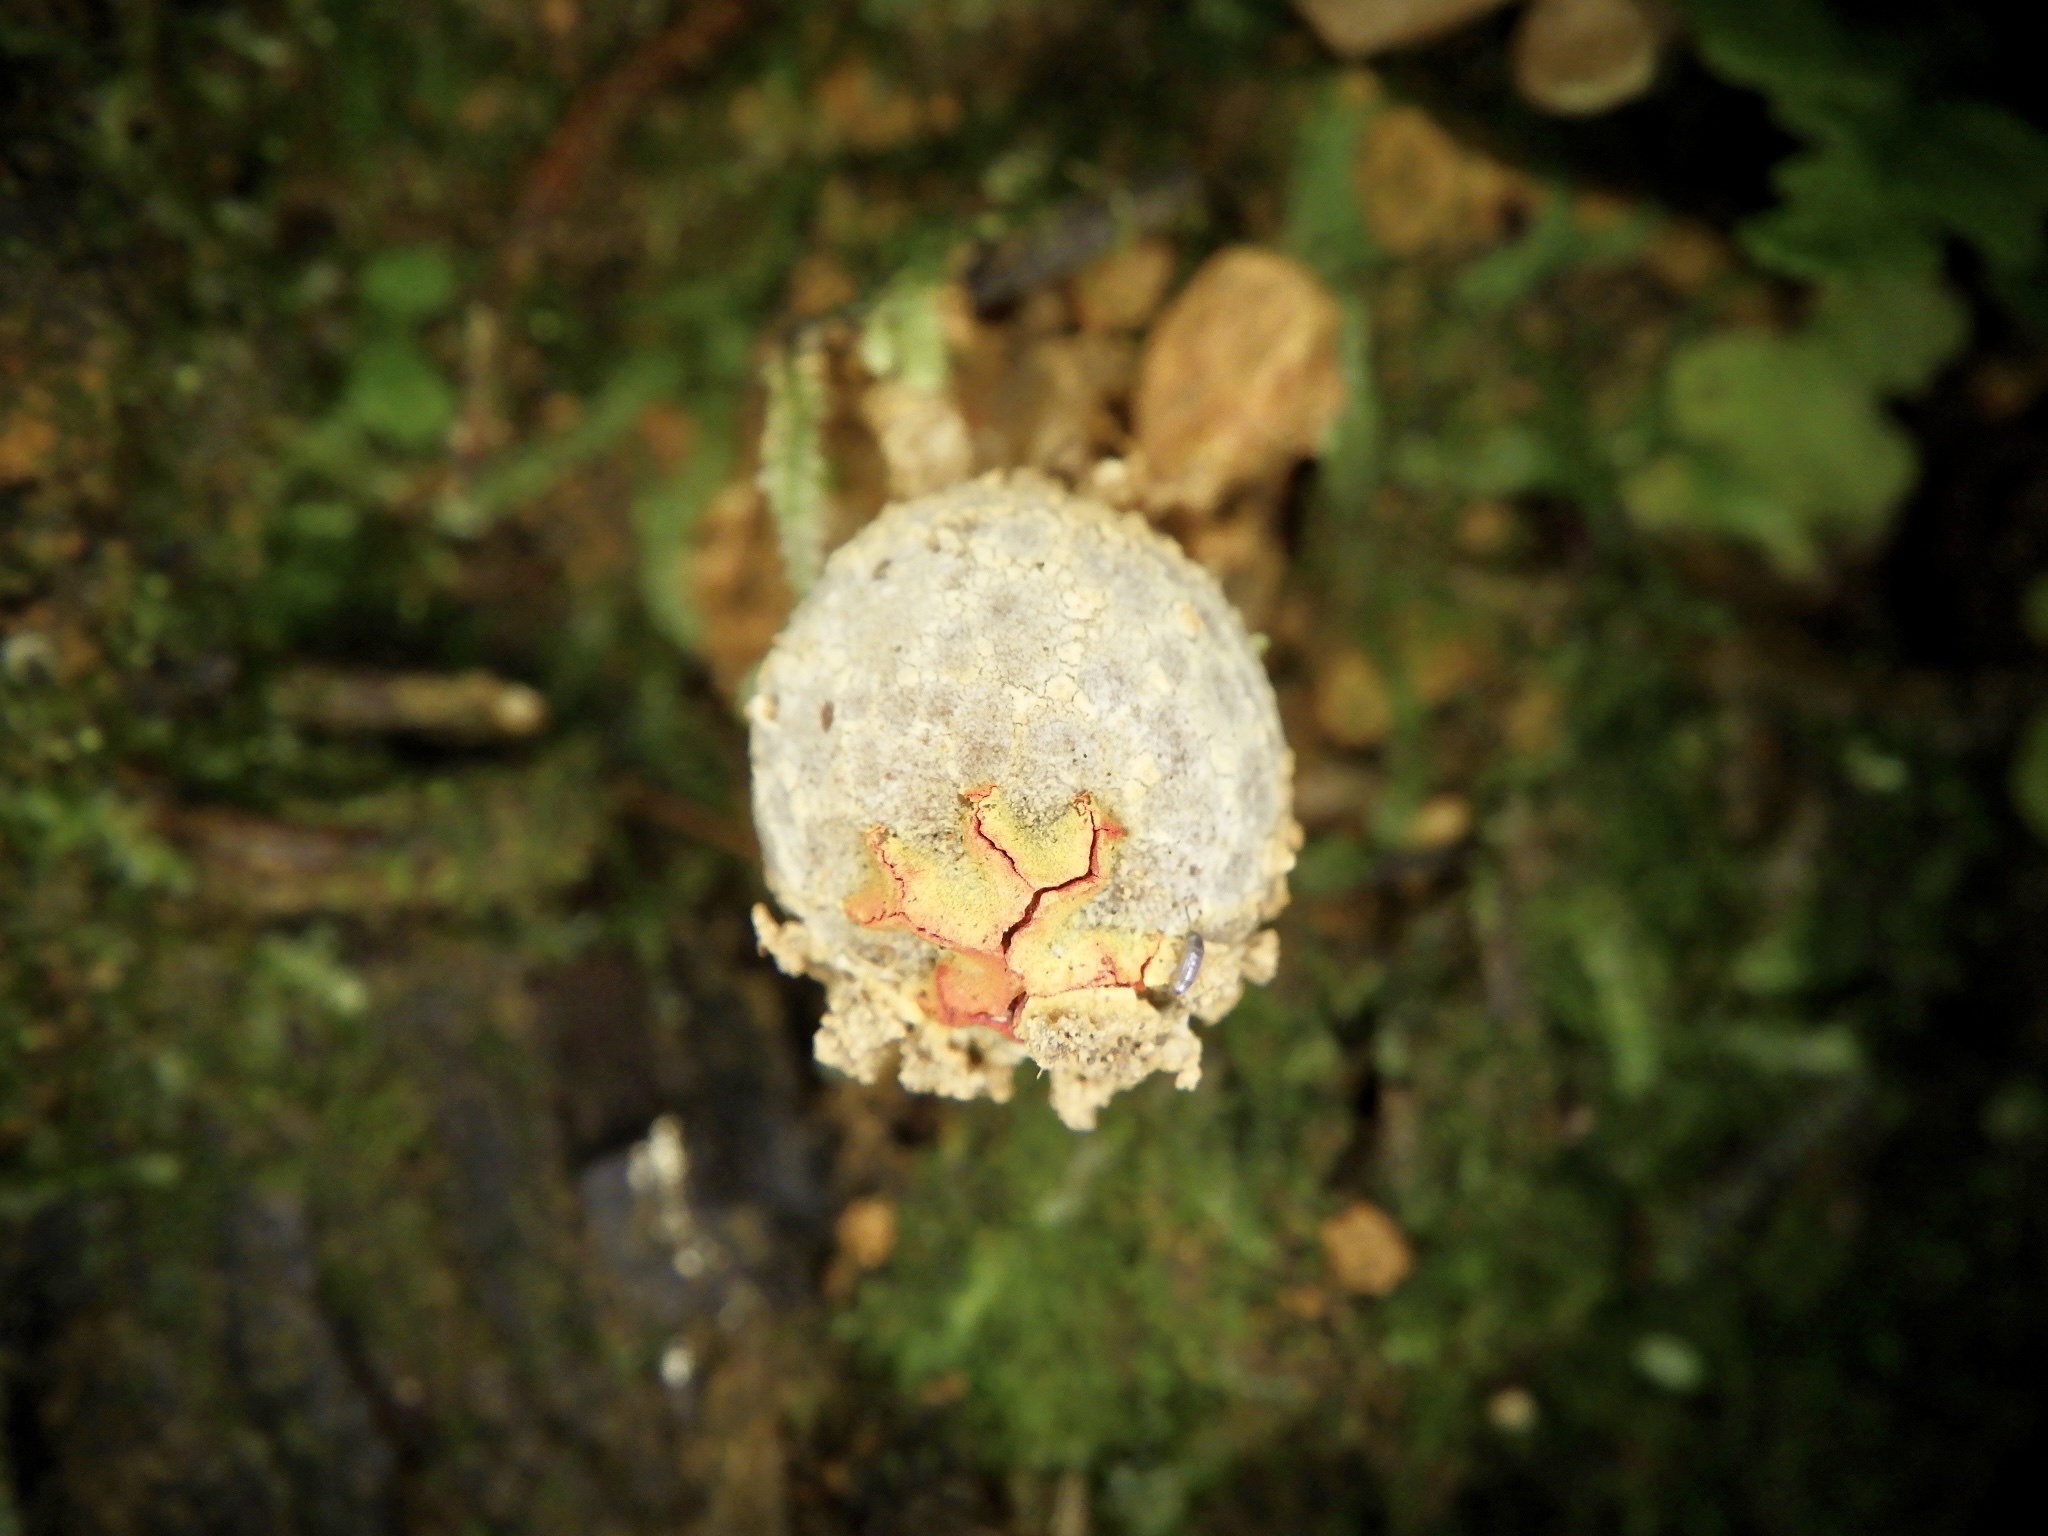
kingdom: Fungi
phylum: Basidiomycota
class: Agaricomycetes
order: Boletales
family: Calostomataceae
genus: Calostoma
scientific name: Calostoma japonicum
